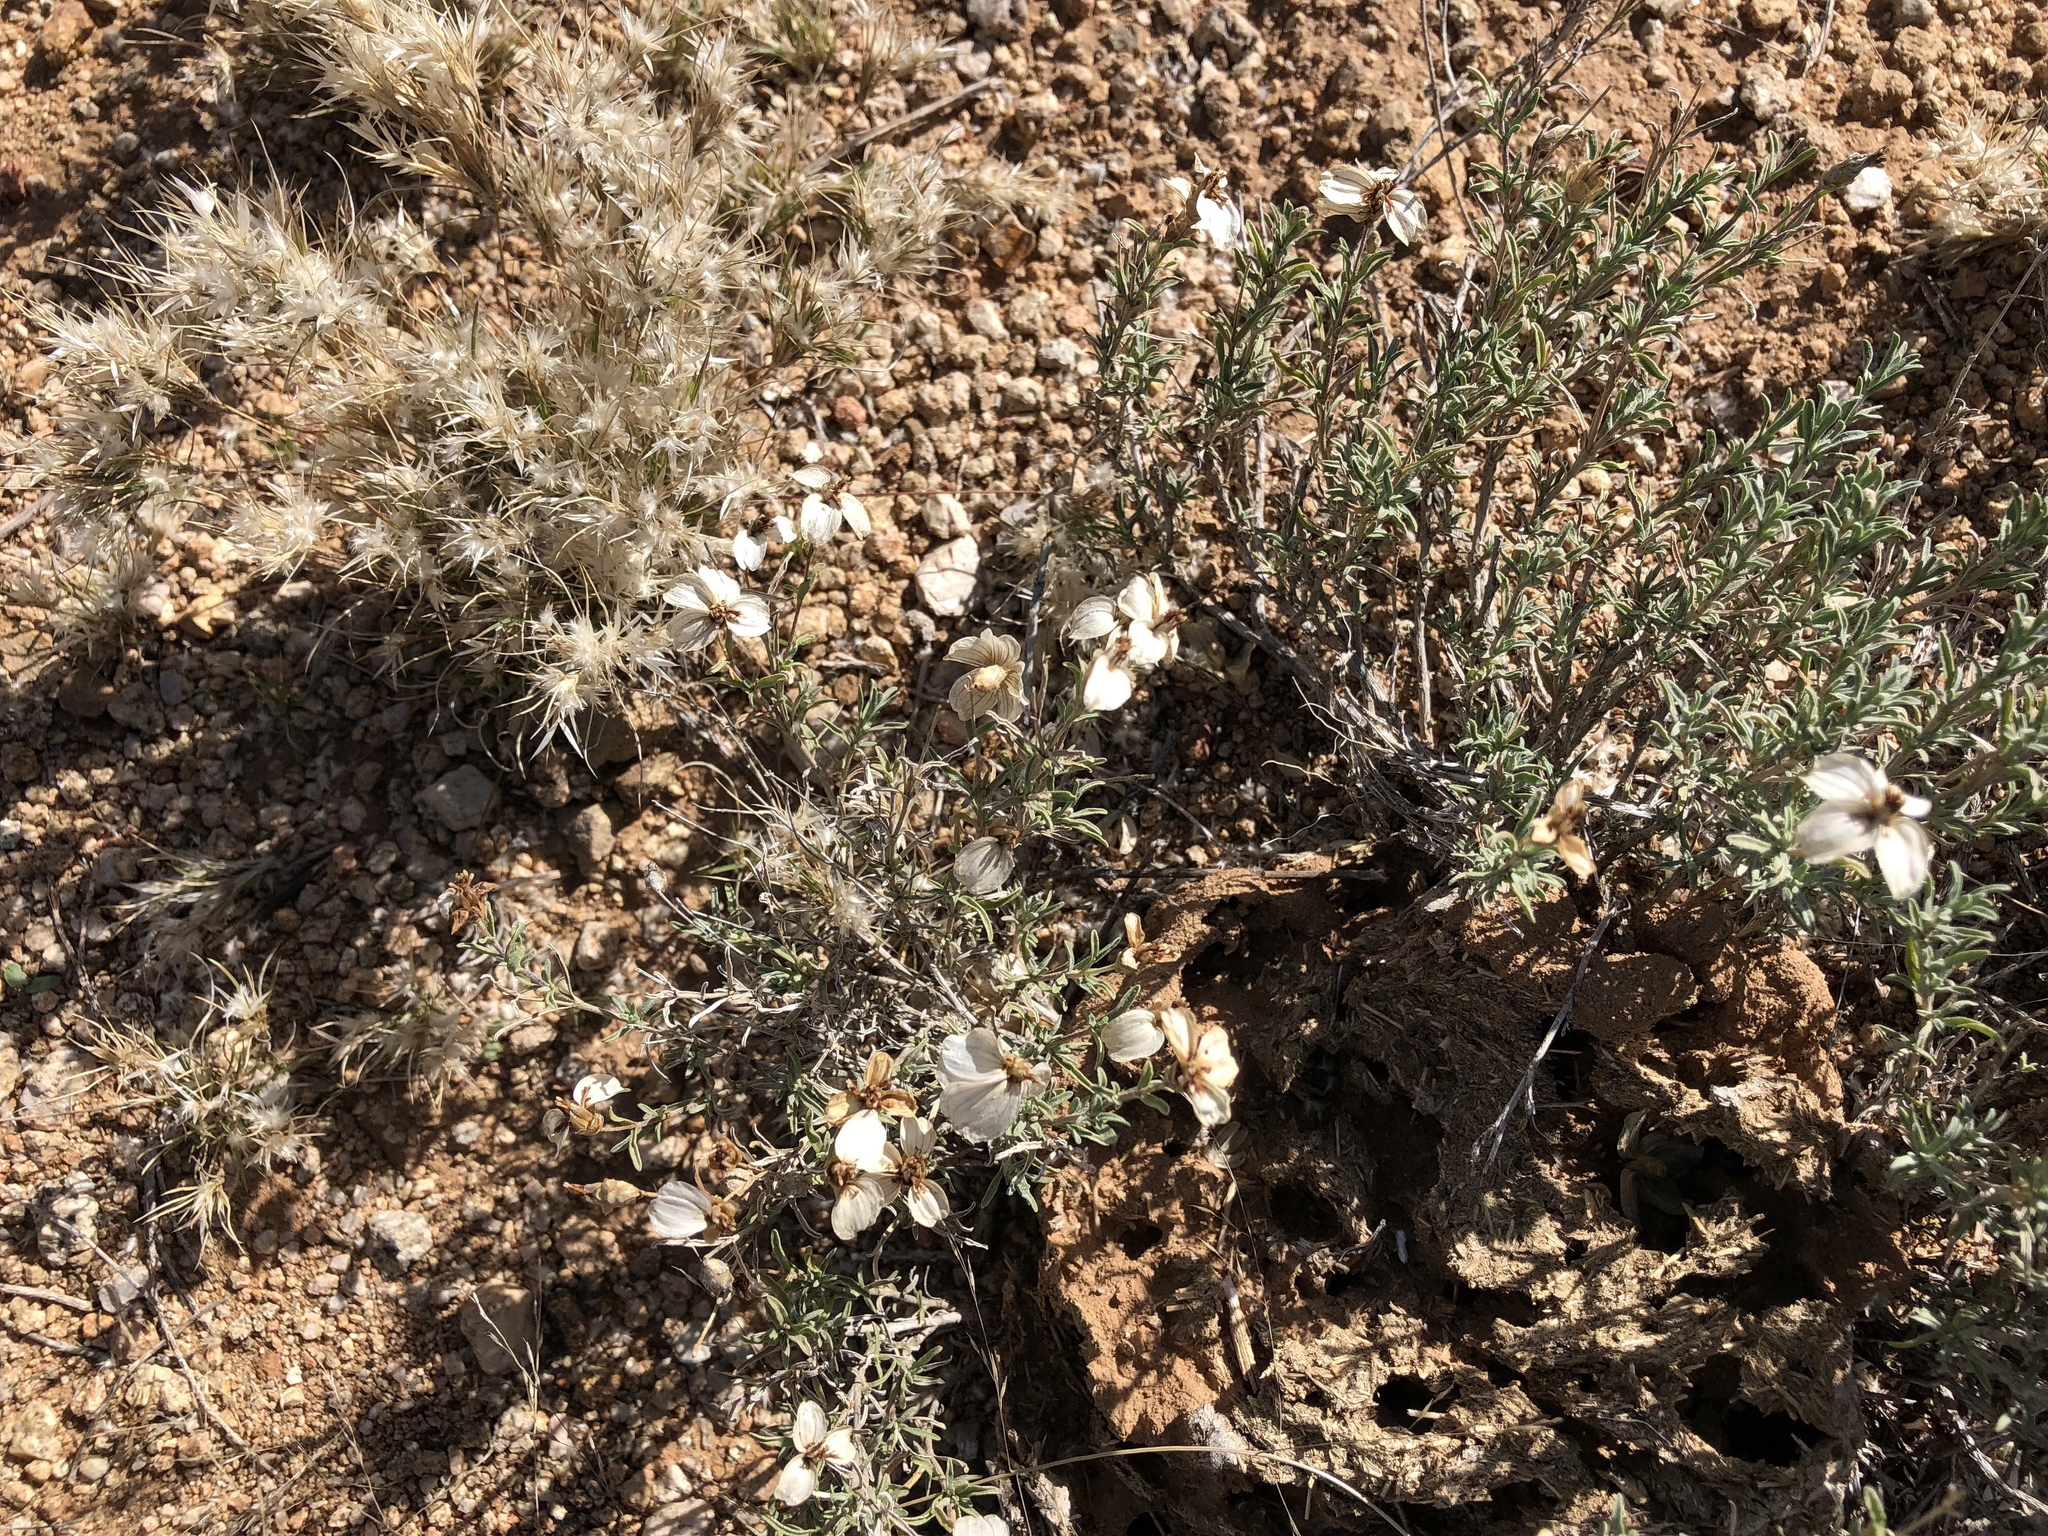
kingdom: Plantae
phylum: Tracheophyta
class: Magnoliopsida
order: Asterales
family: Asteraceae
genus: Zinnia
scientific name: Zinnia acerosa
